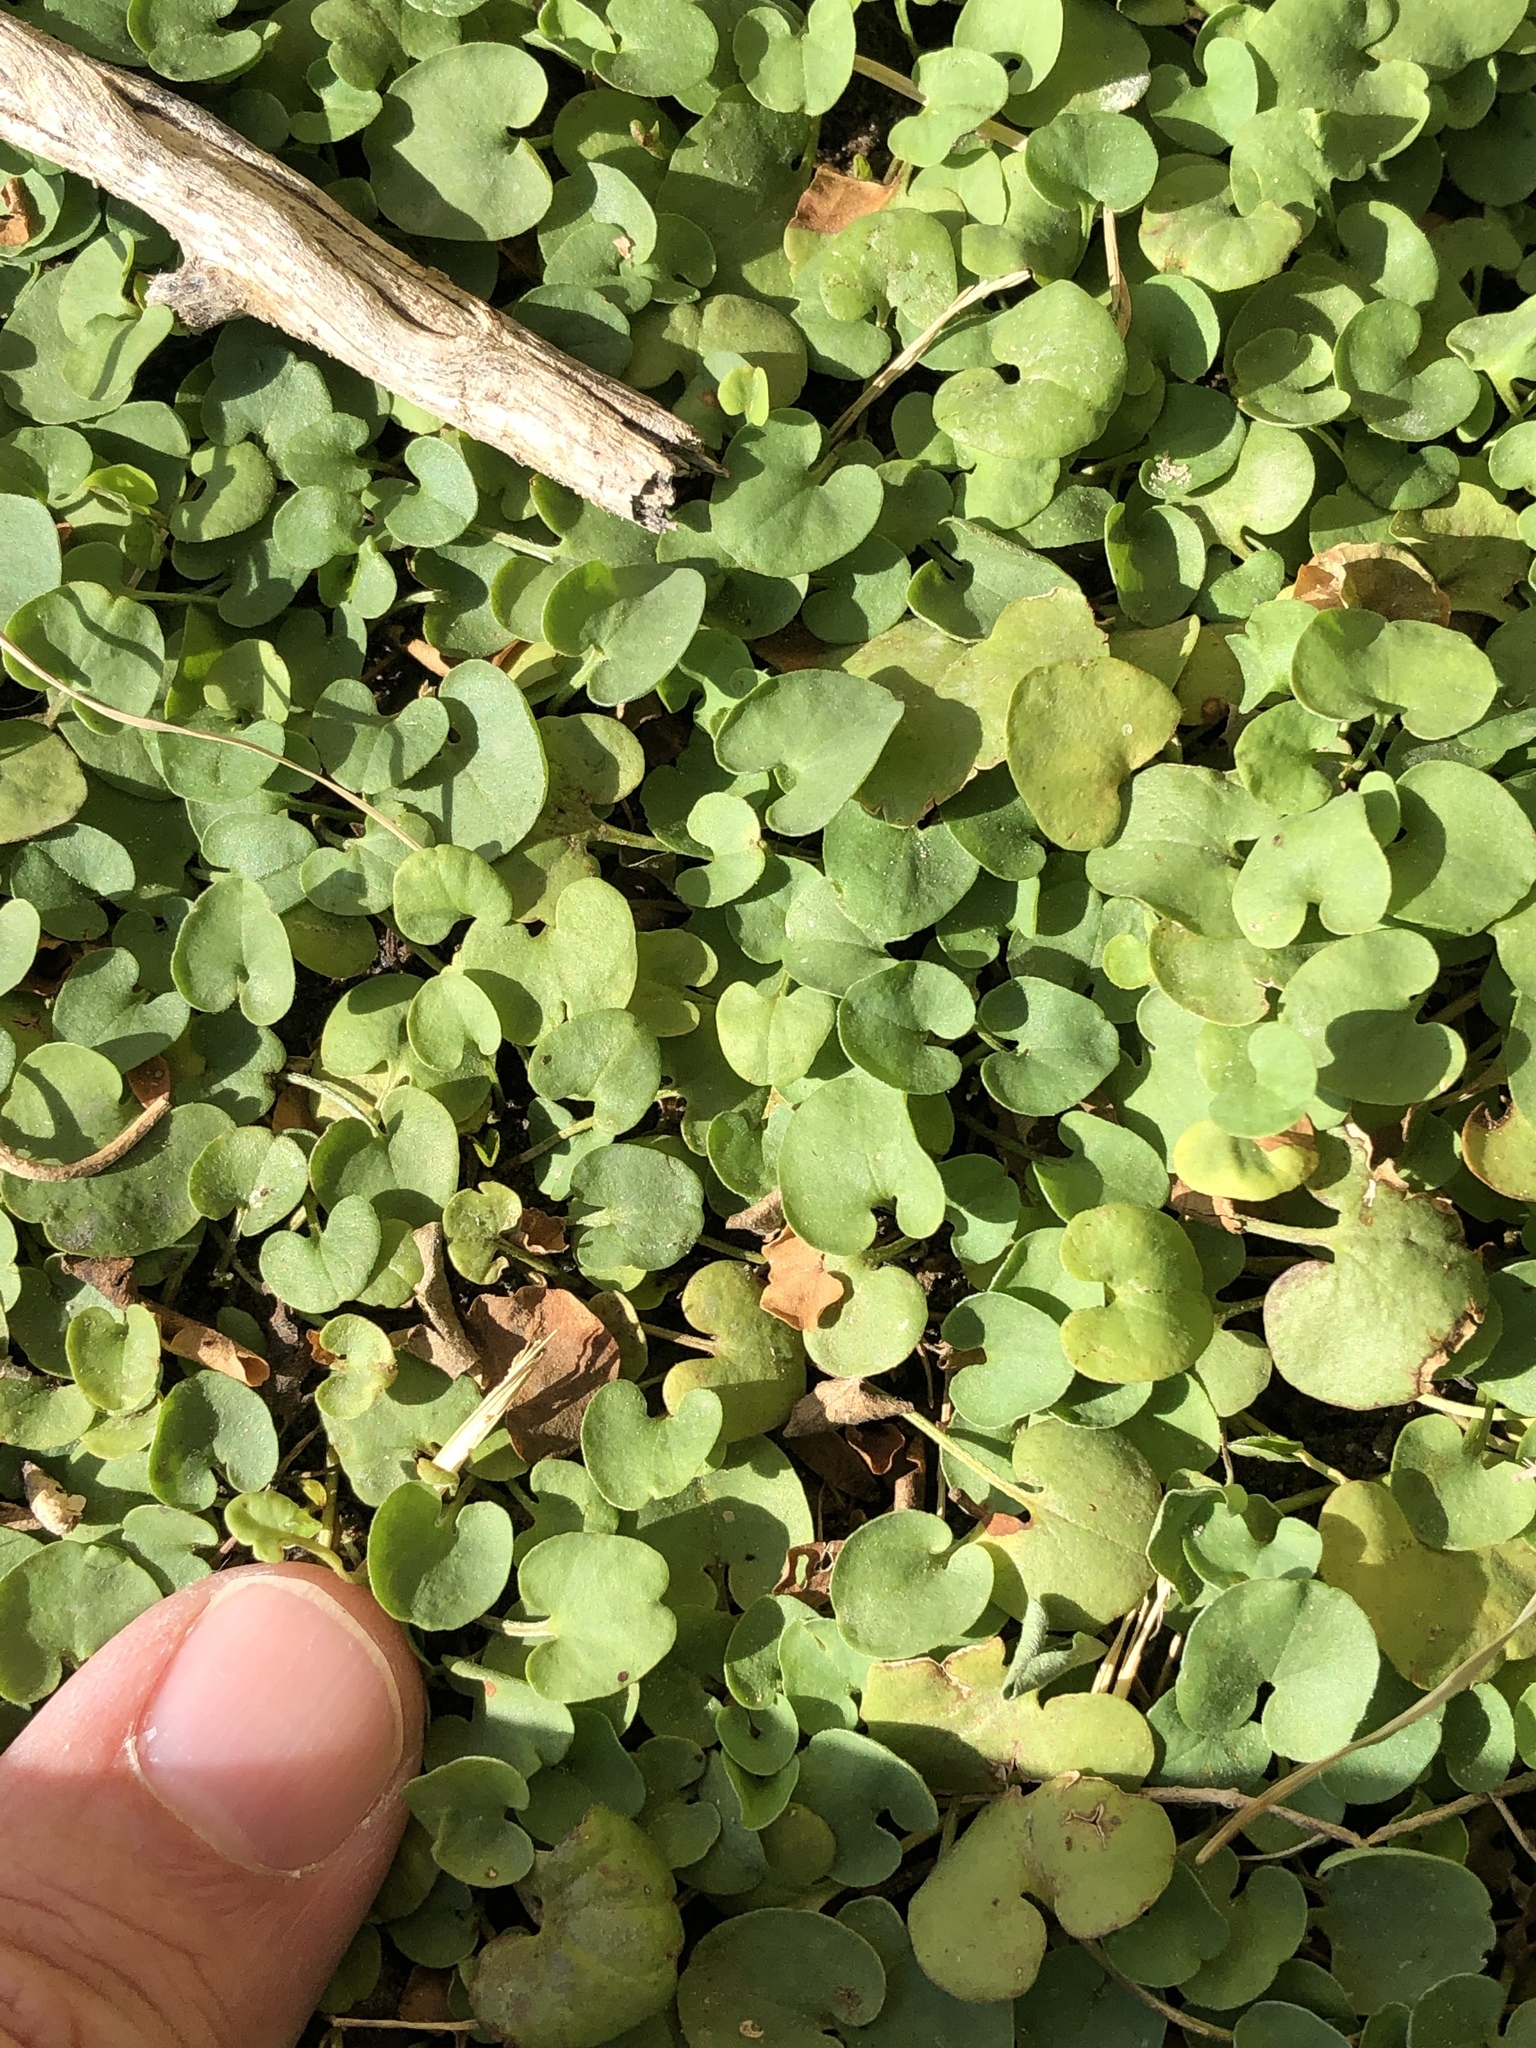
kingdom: Plantae
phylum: Tracheophyta
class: Magnoliopsida
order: Solanales
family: Convolvulaceae
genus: Dichondra
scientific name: Dichondra carolinensis
